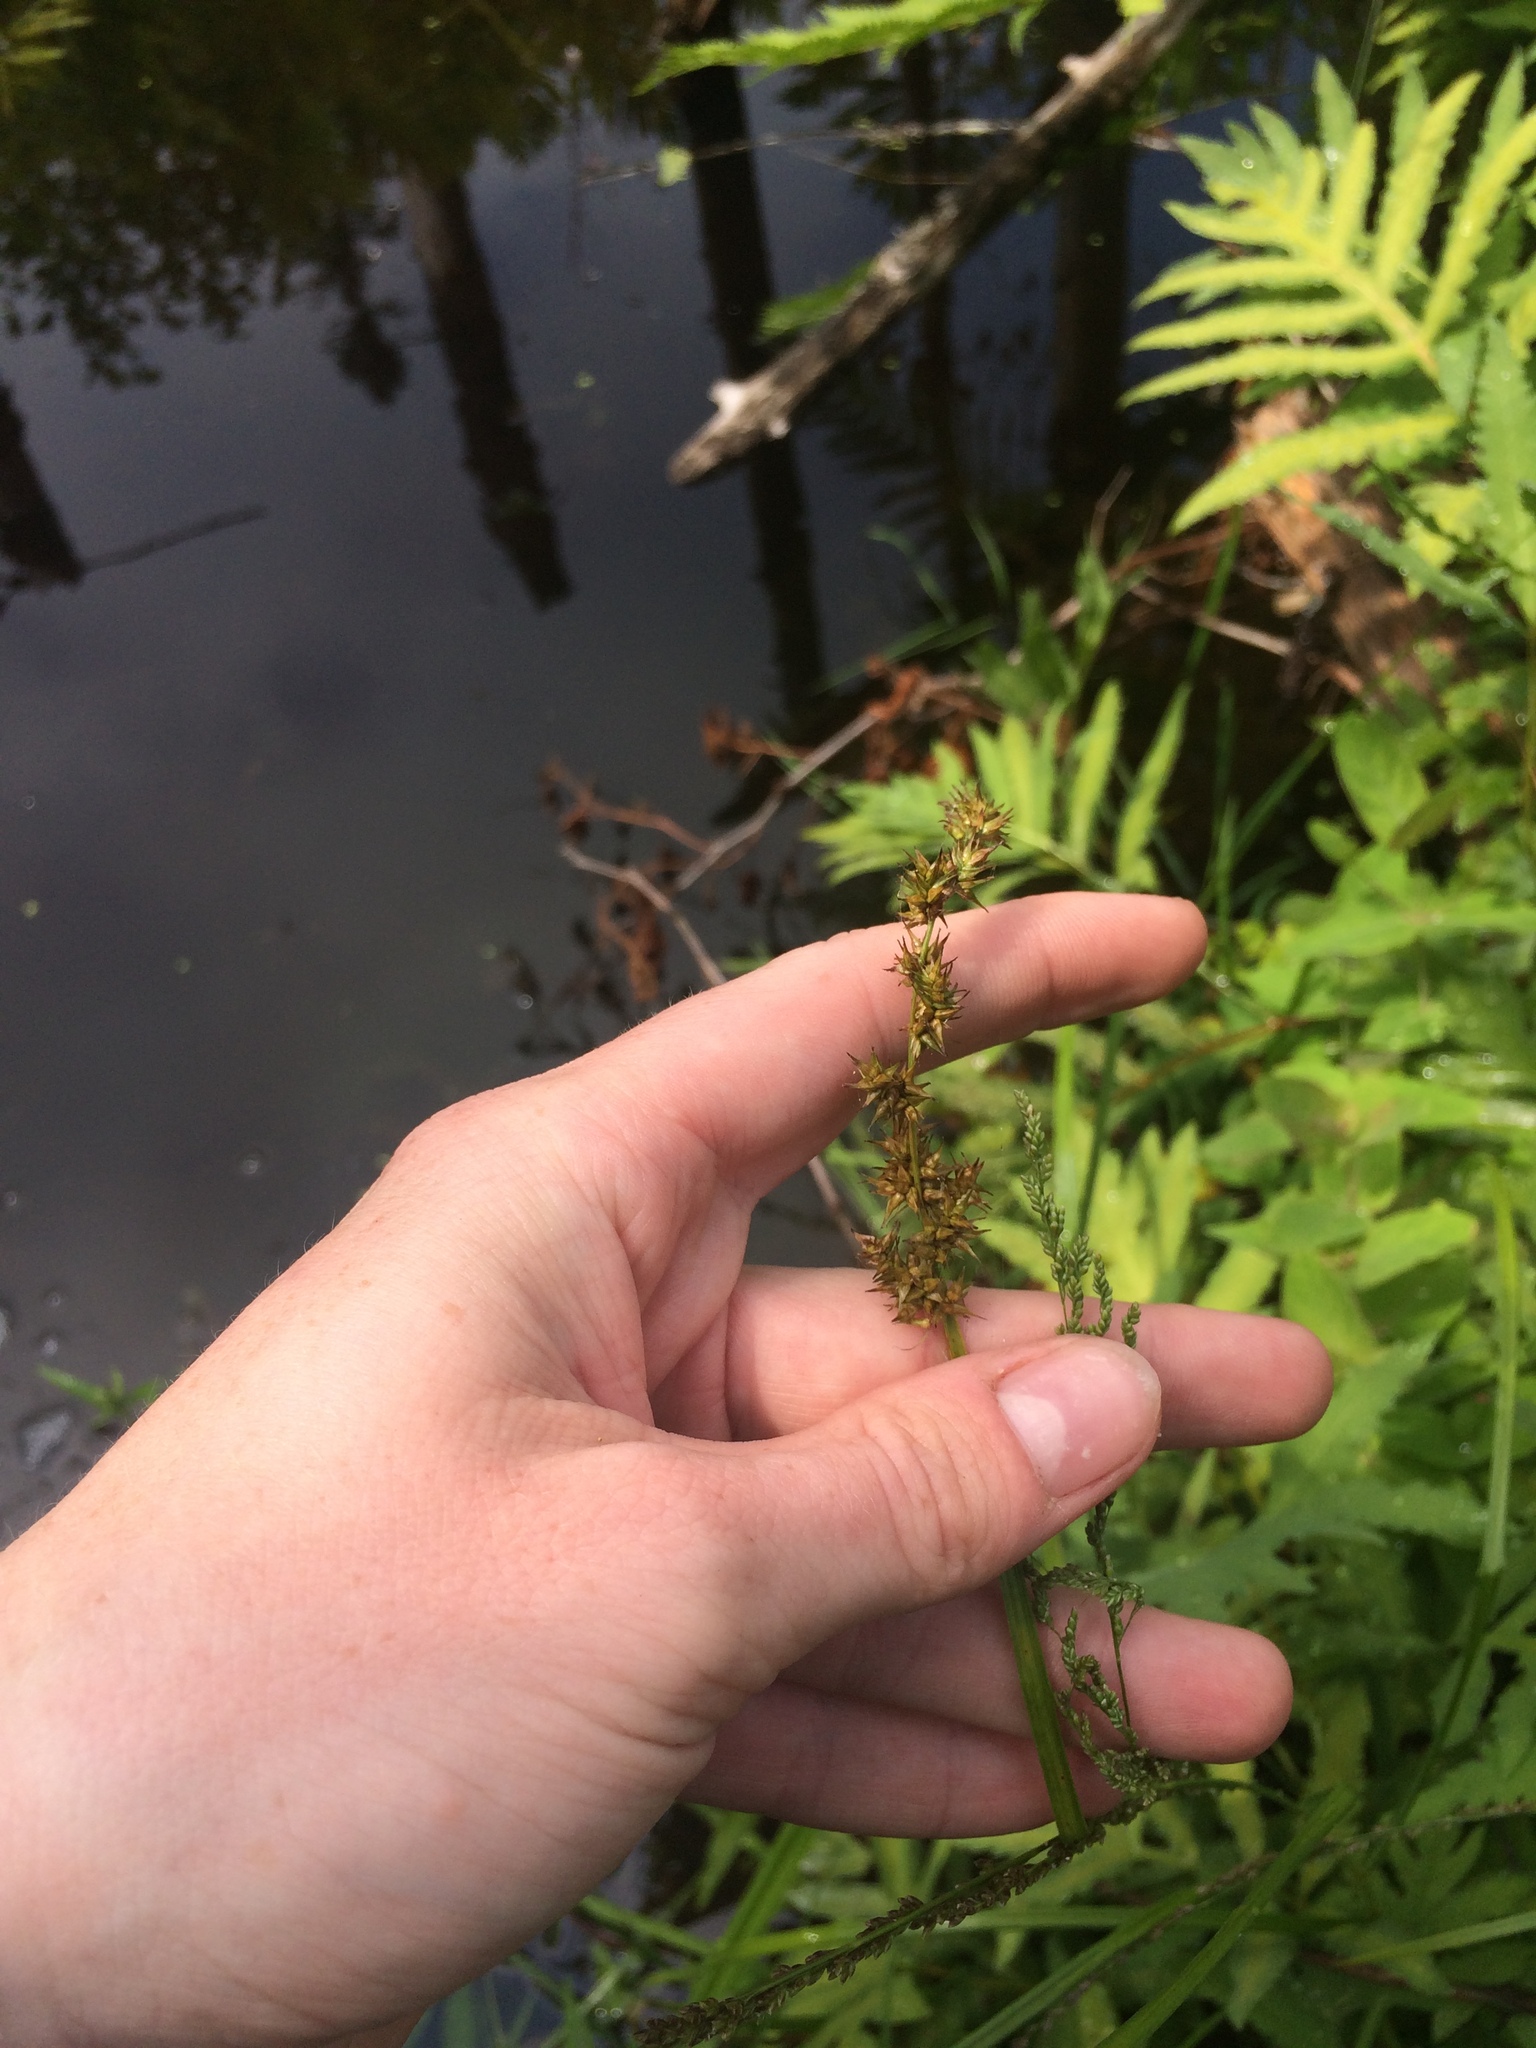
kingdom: Plantae
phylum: Tracheophyta
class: Liliopsida
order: Poales
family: Cyperaceae
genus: Carex
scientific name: Carex stipata
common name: Awl-fruited sedge
